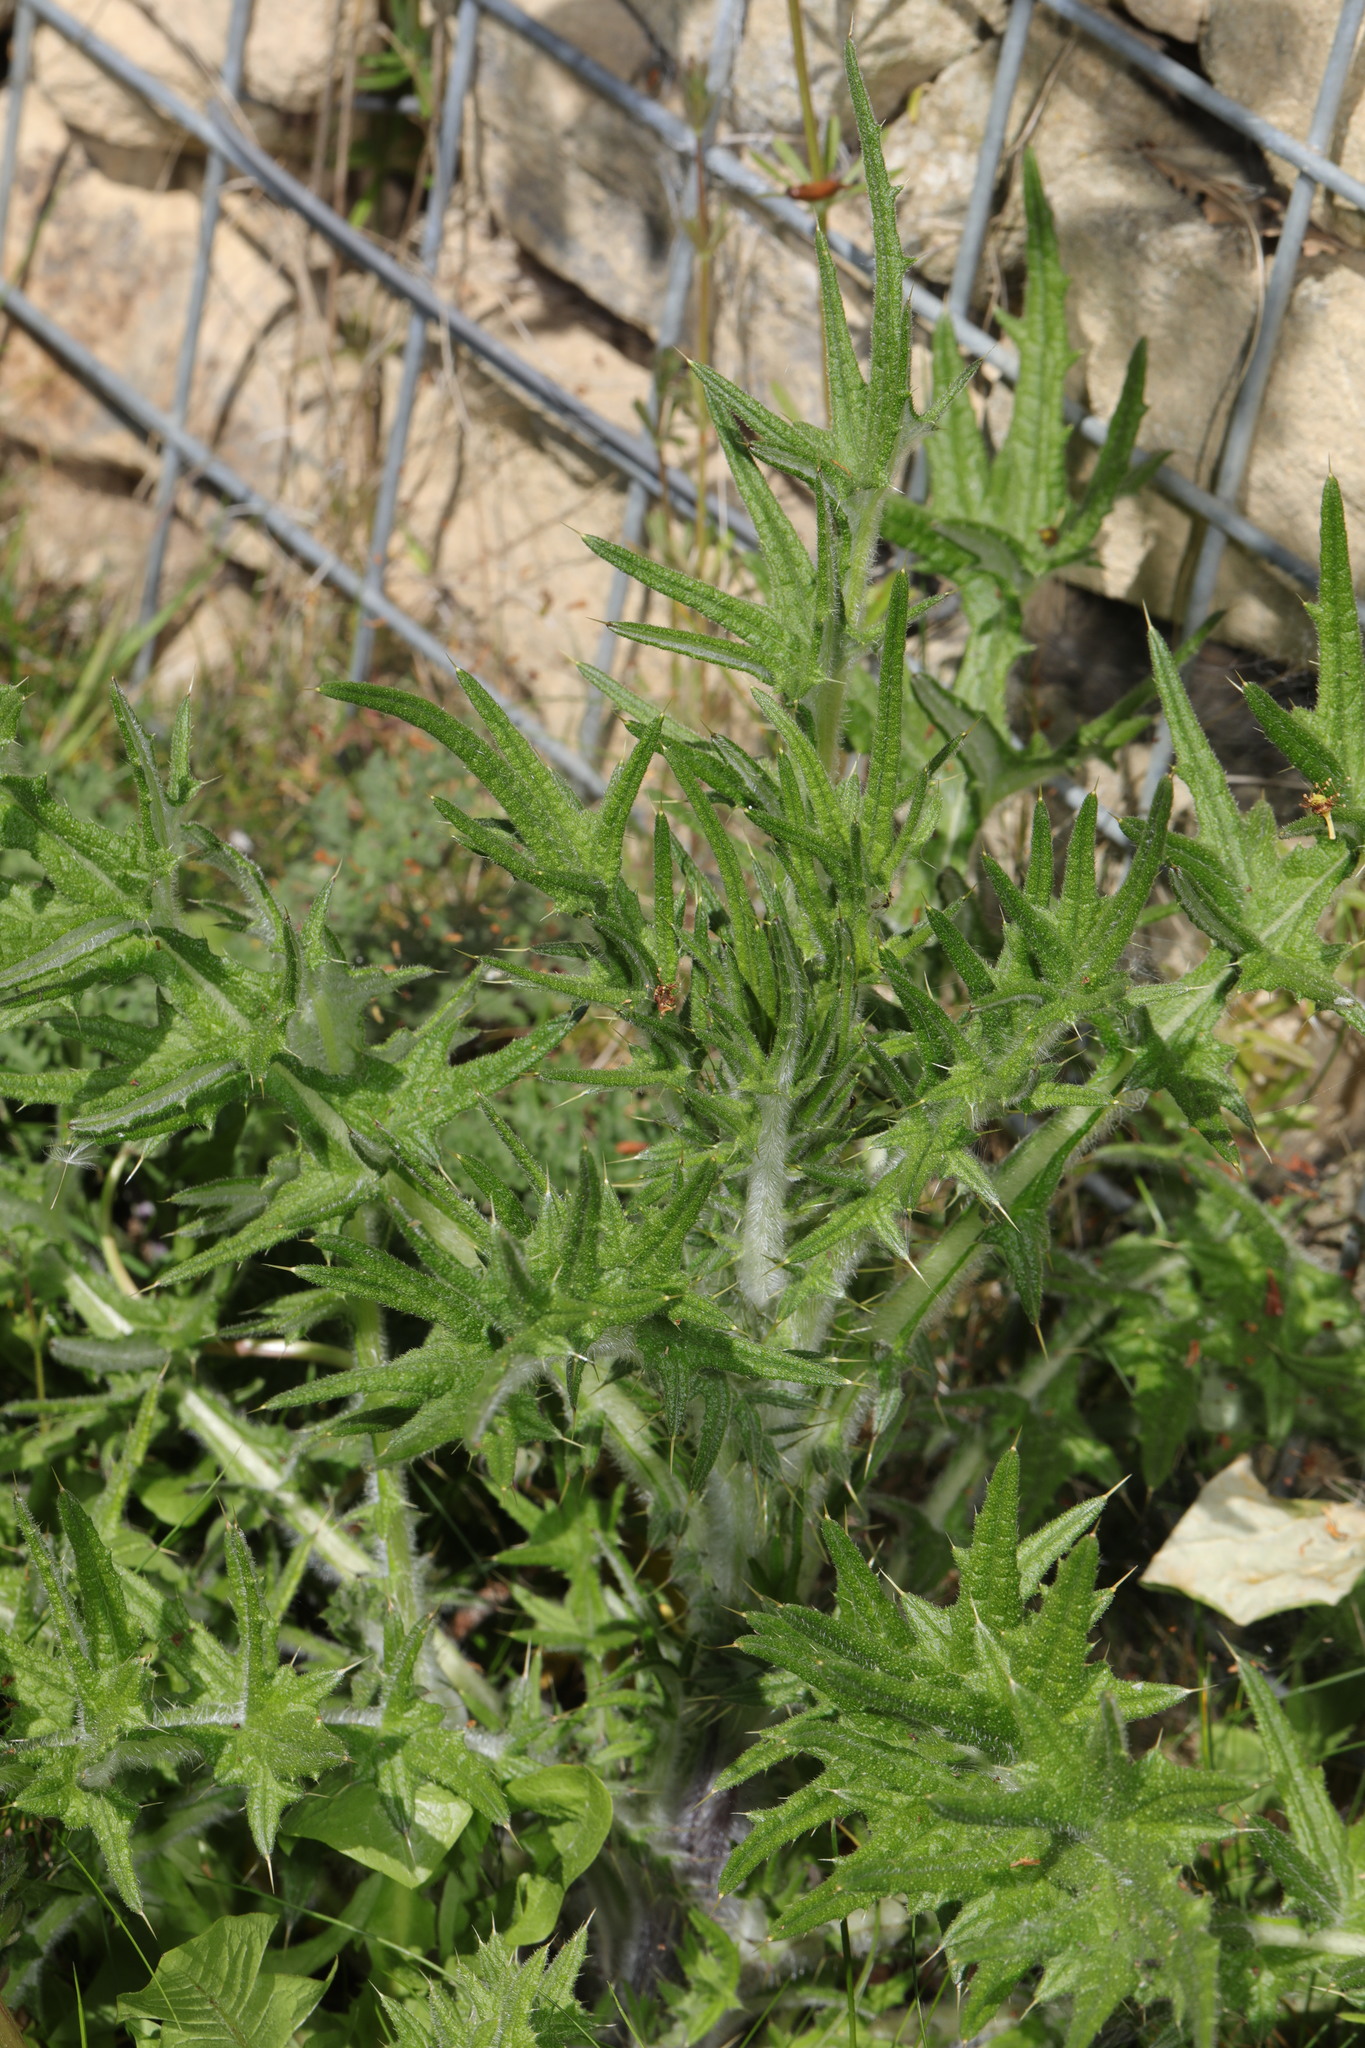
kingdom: Plantae
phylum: Tracheophyta
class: Magnoliopsida
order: Asterales
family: Asteraceae
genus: Cirsium
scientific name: Cirsium vulgare
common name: Bull thistle
